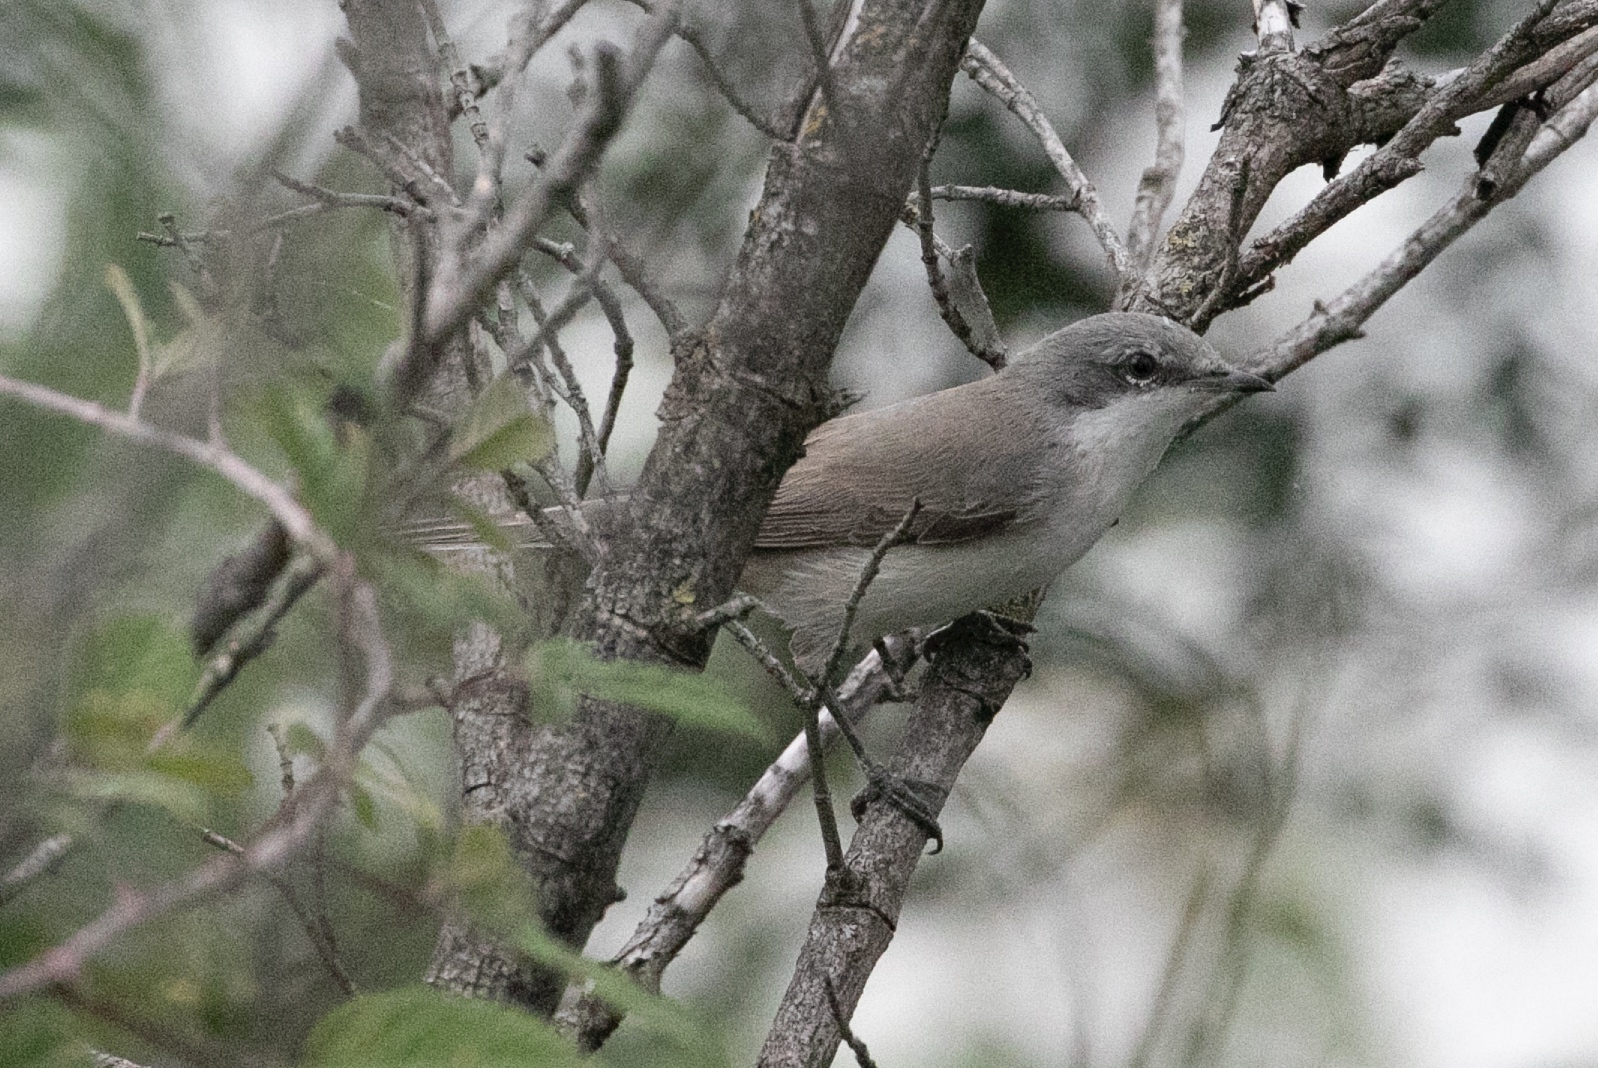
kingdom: Animalia
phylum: Chordata
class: Aves
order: Passeriformes
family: Sylviidae
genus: Sylvia
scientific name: Sylvia curruca
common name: Lesser whitethroat
